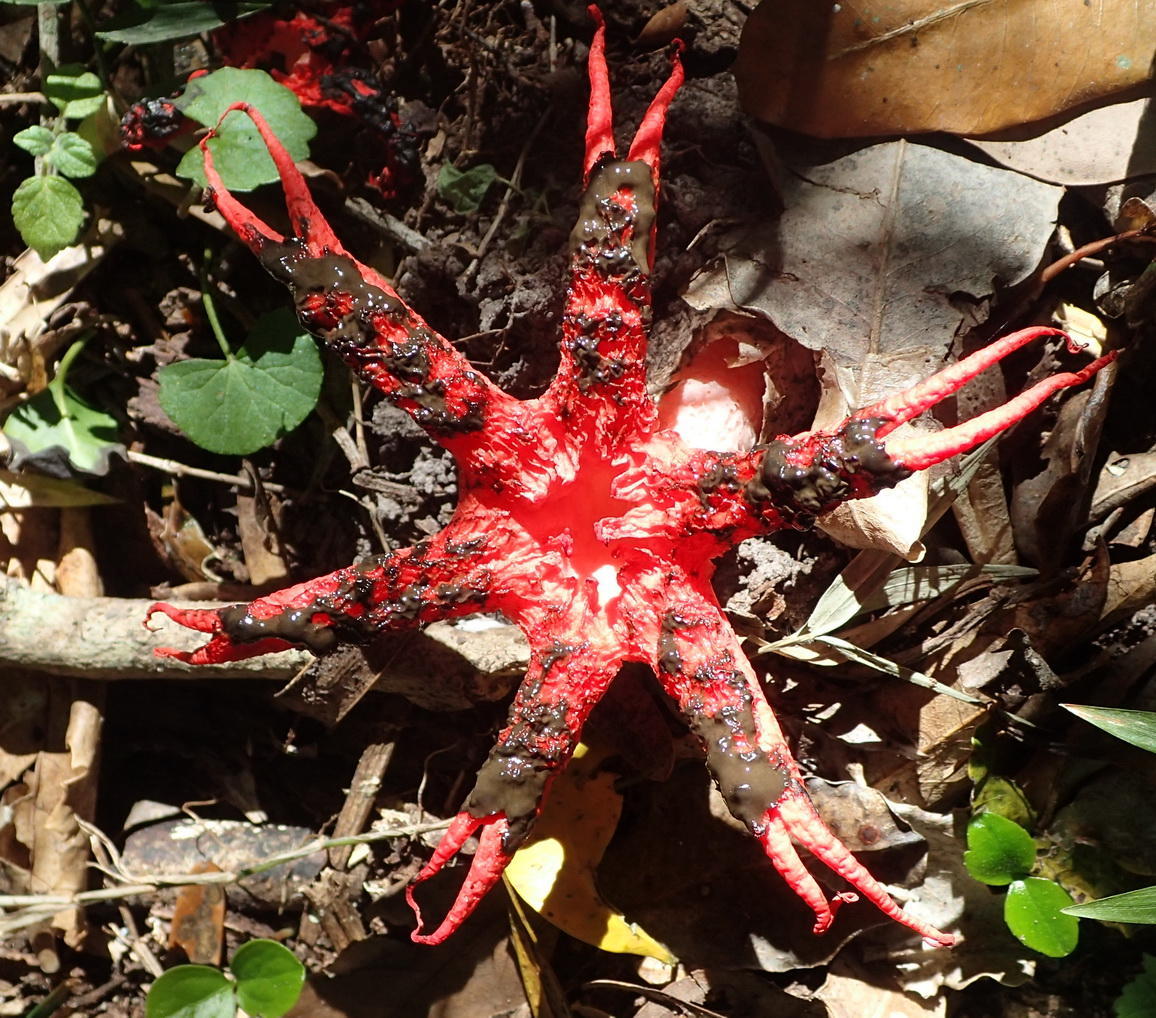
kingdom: Fungi
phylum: Basidiomycota
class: Agaricomycetes
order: Phallales
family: Phallaceae
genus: Clathrus
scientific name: Clathrus archeri
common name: Devil's fingers
